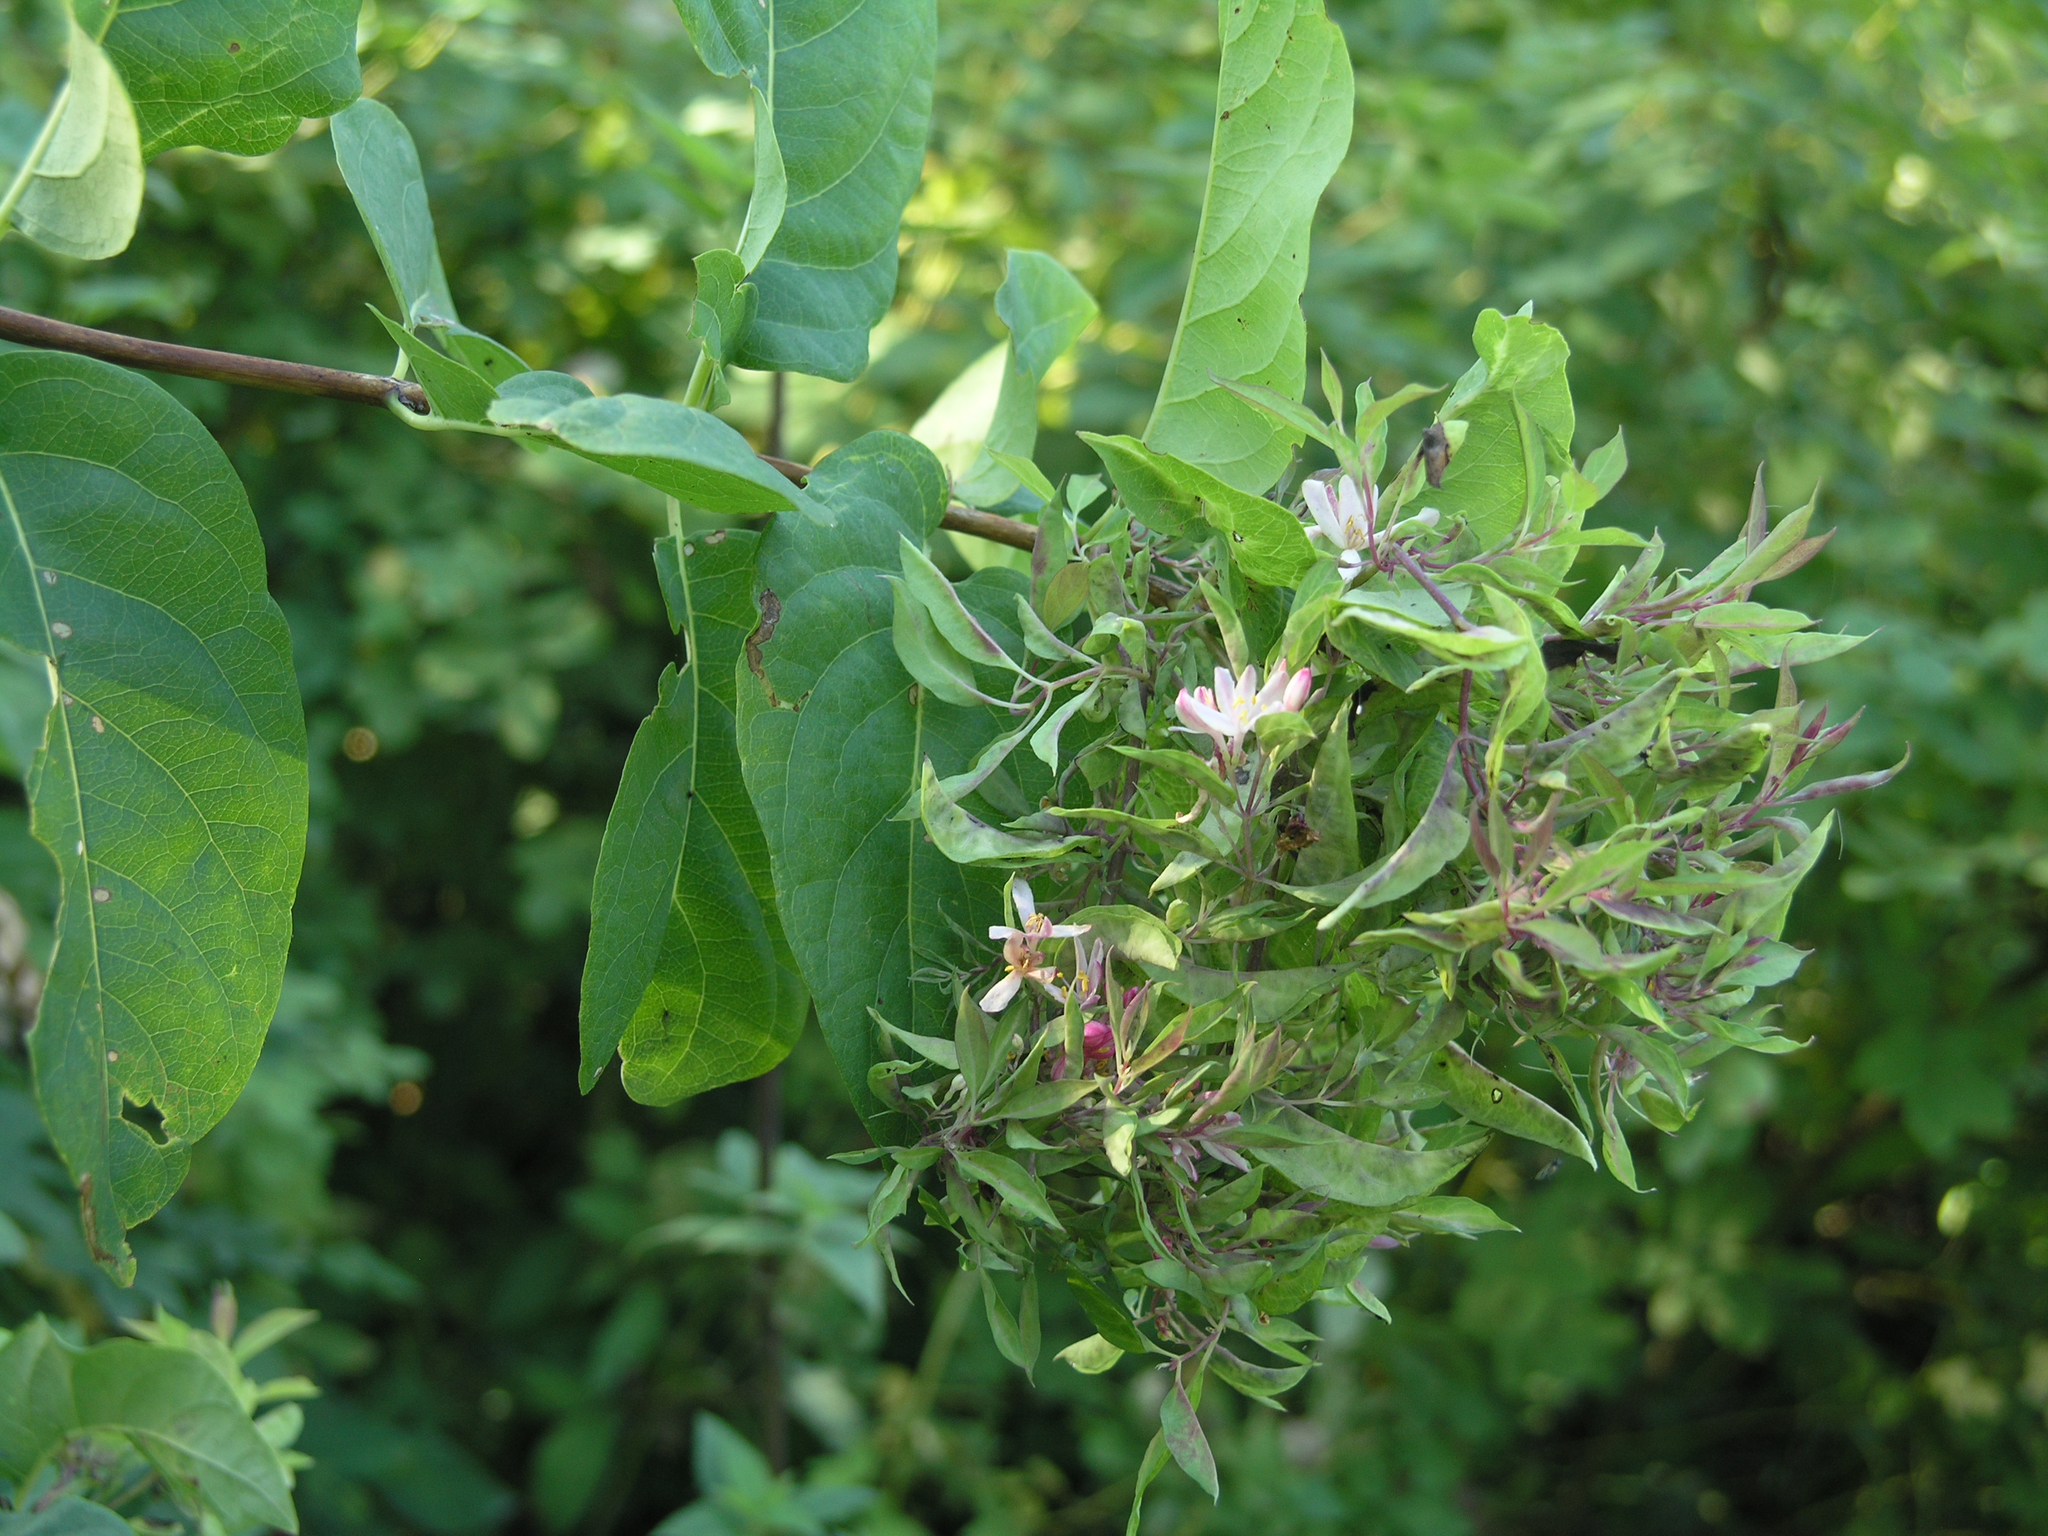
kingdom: Plantae
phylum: Tracheophyta
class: Magnoliopsida
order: Dipsacales
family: Caprifoliaceae
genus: Lonicera
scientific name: Lonicera tatarica
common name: Tatarian honeysuckle
